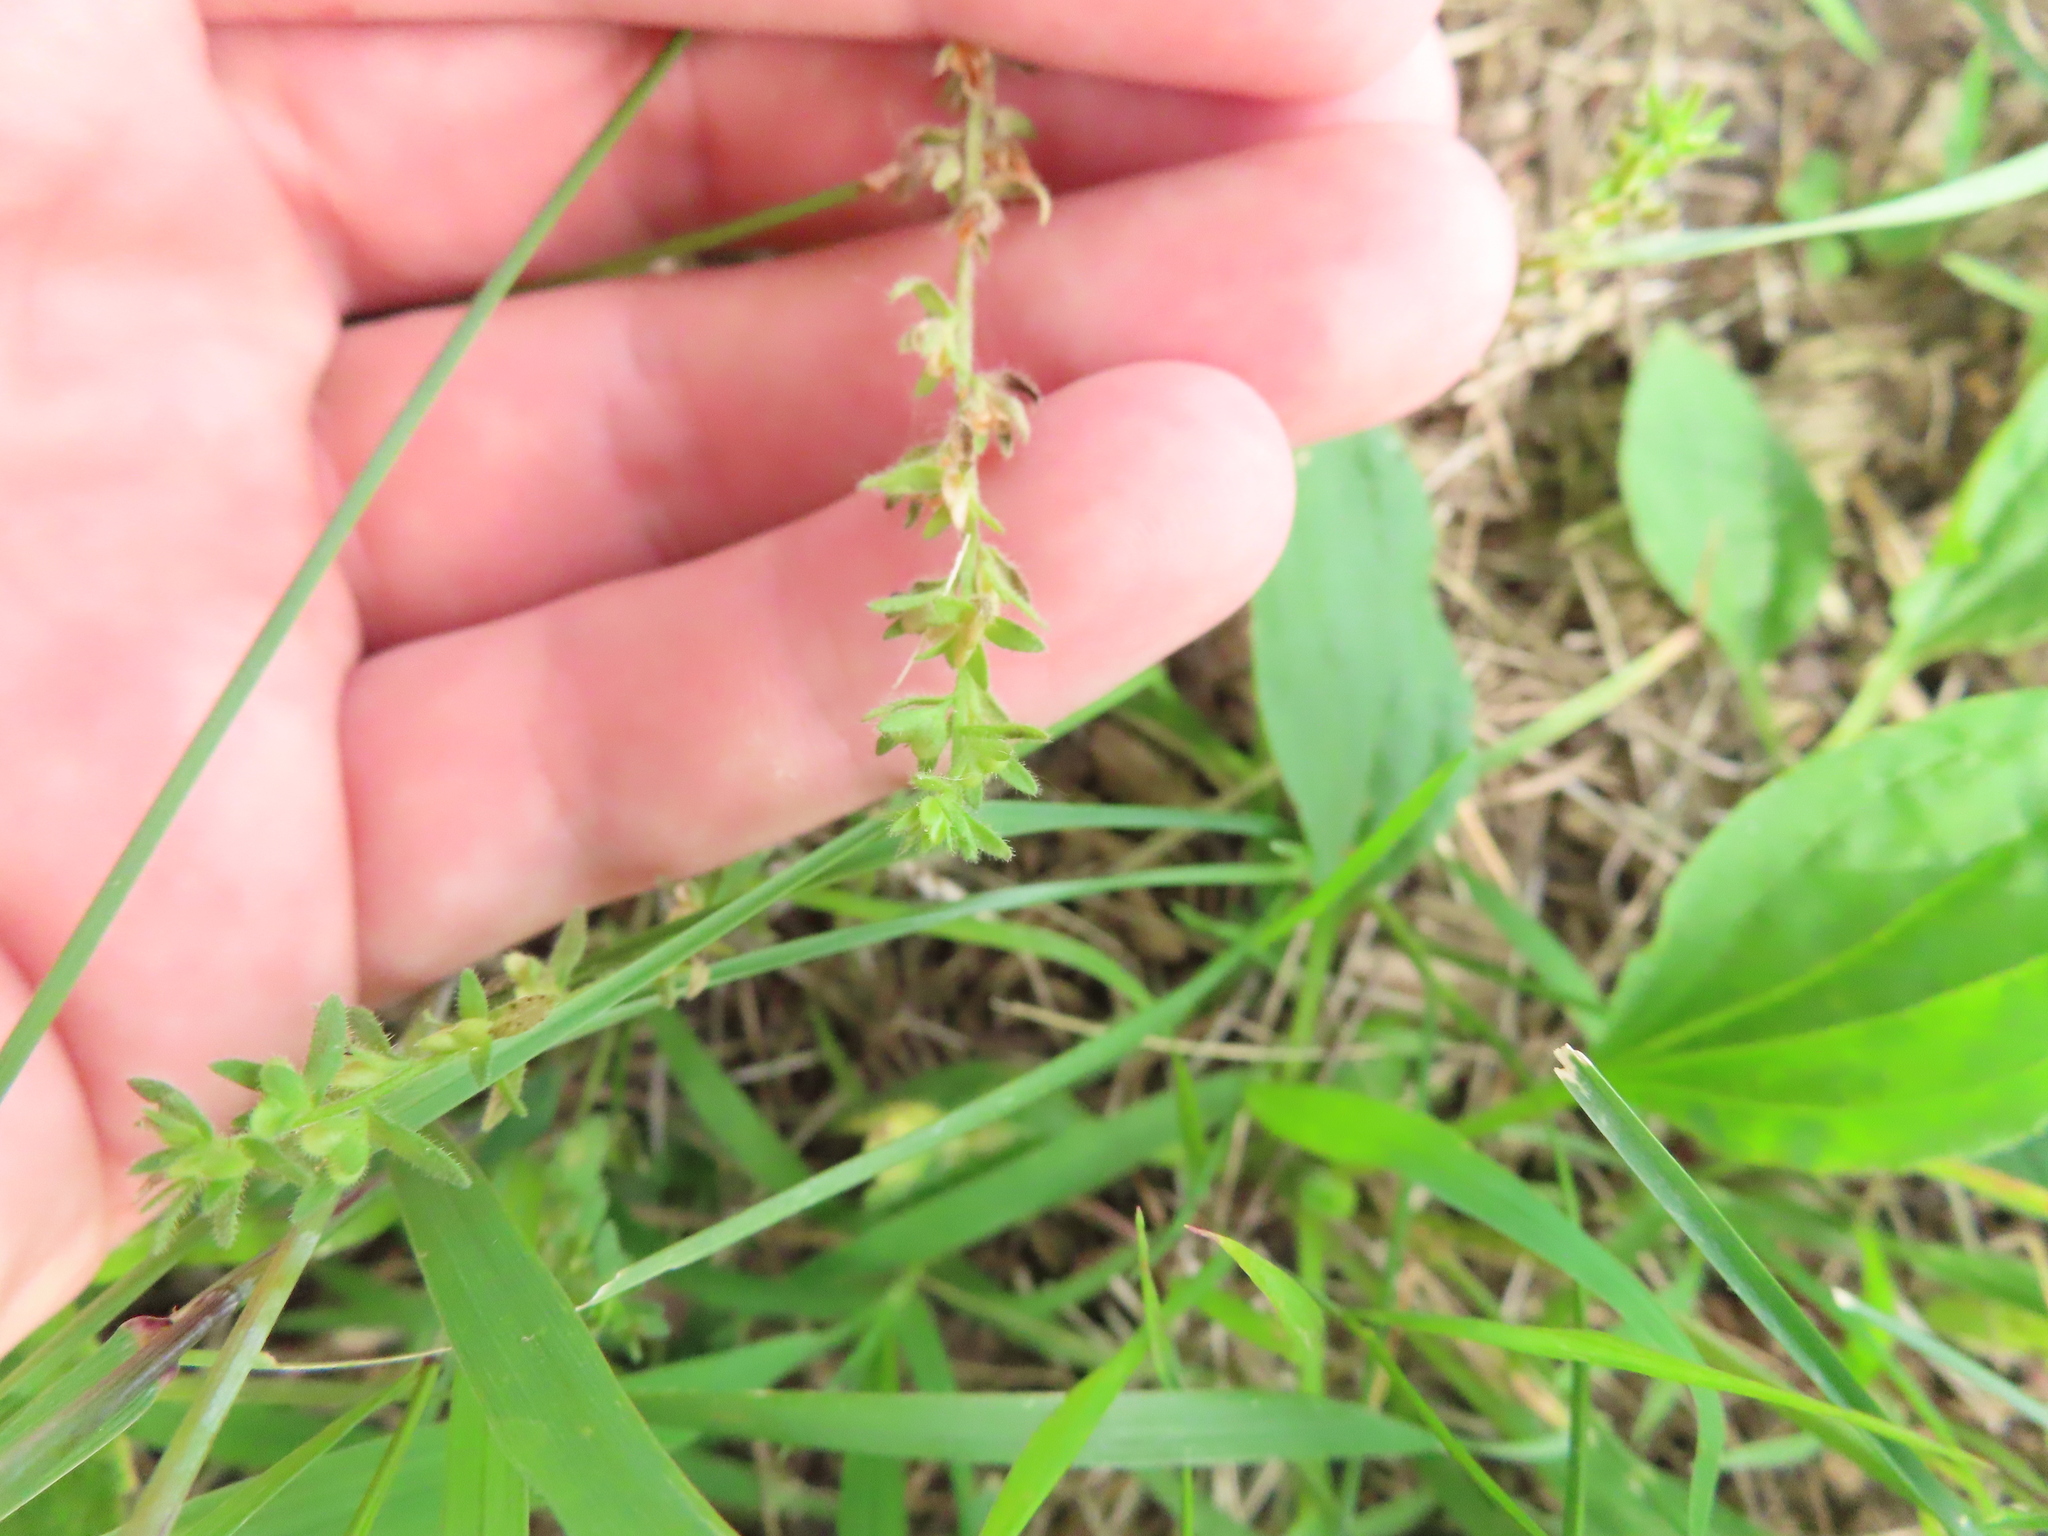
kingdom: Plantae
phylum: Tracheophyta
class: Magnoliopsida
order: Lamiales
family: Plantaginaceae
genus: Veronica
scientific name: Veronica arvensis
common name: Corn speedwell
